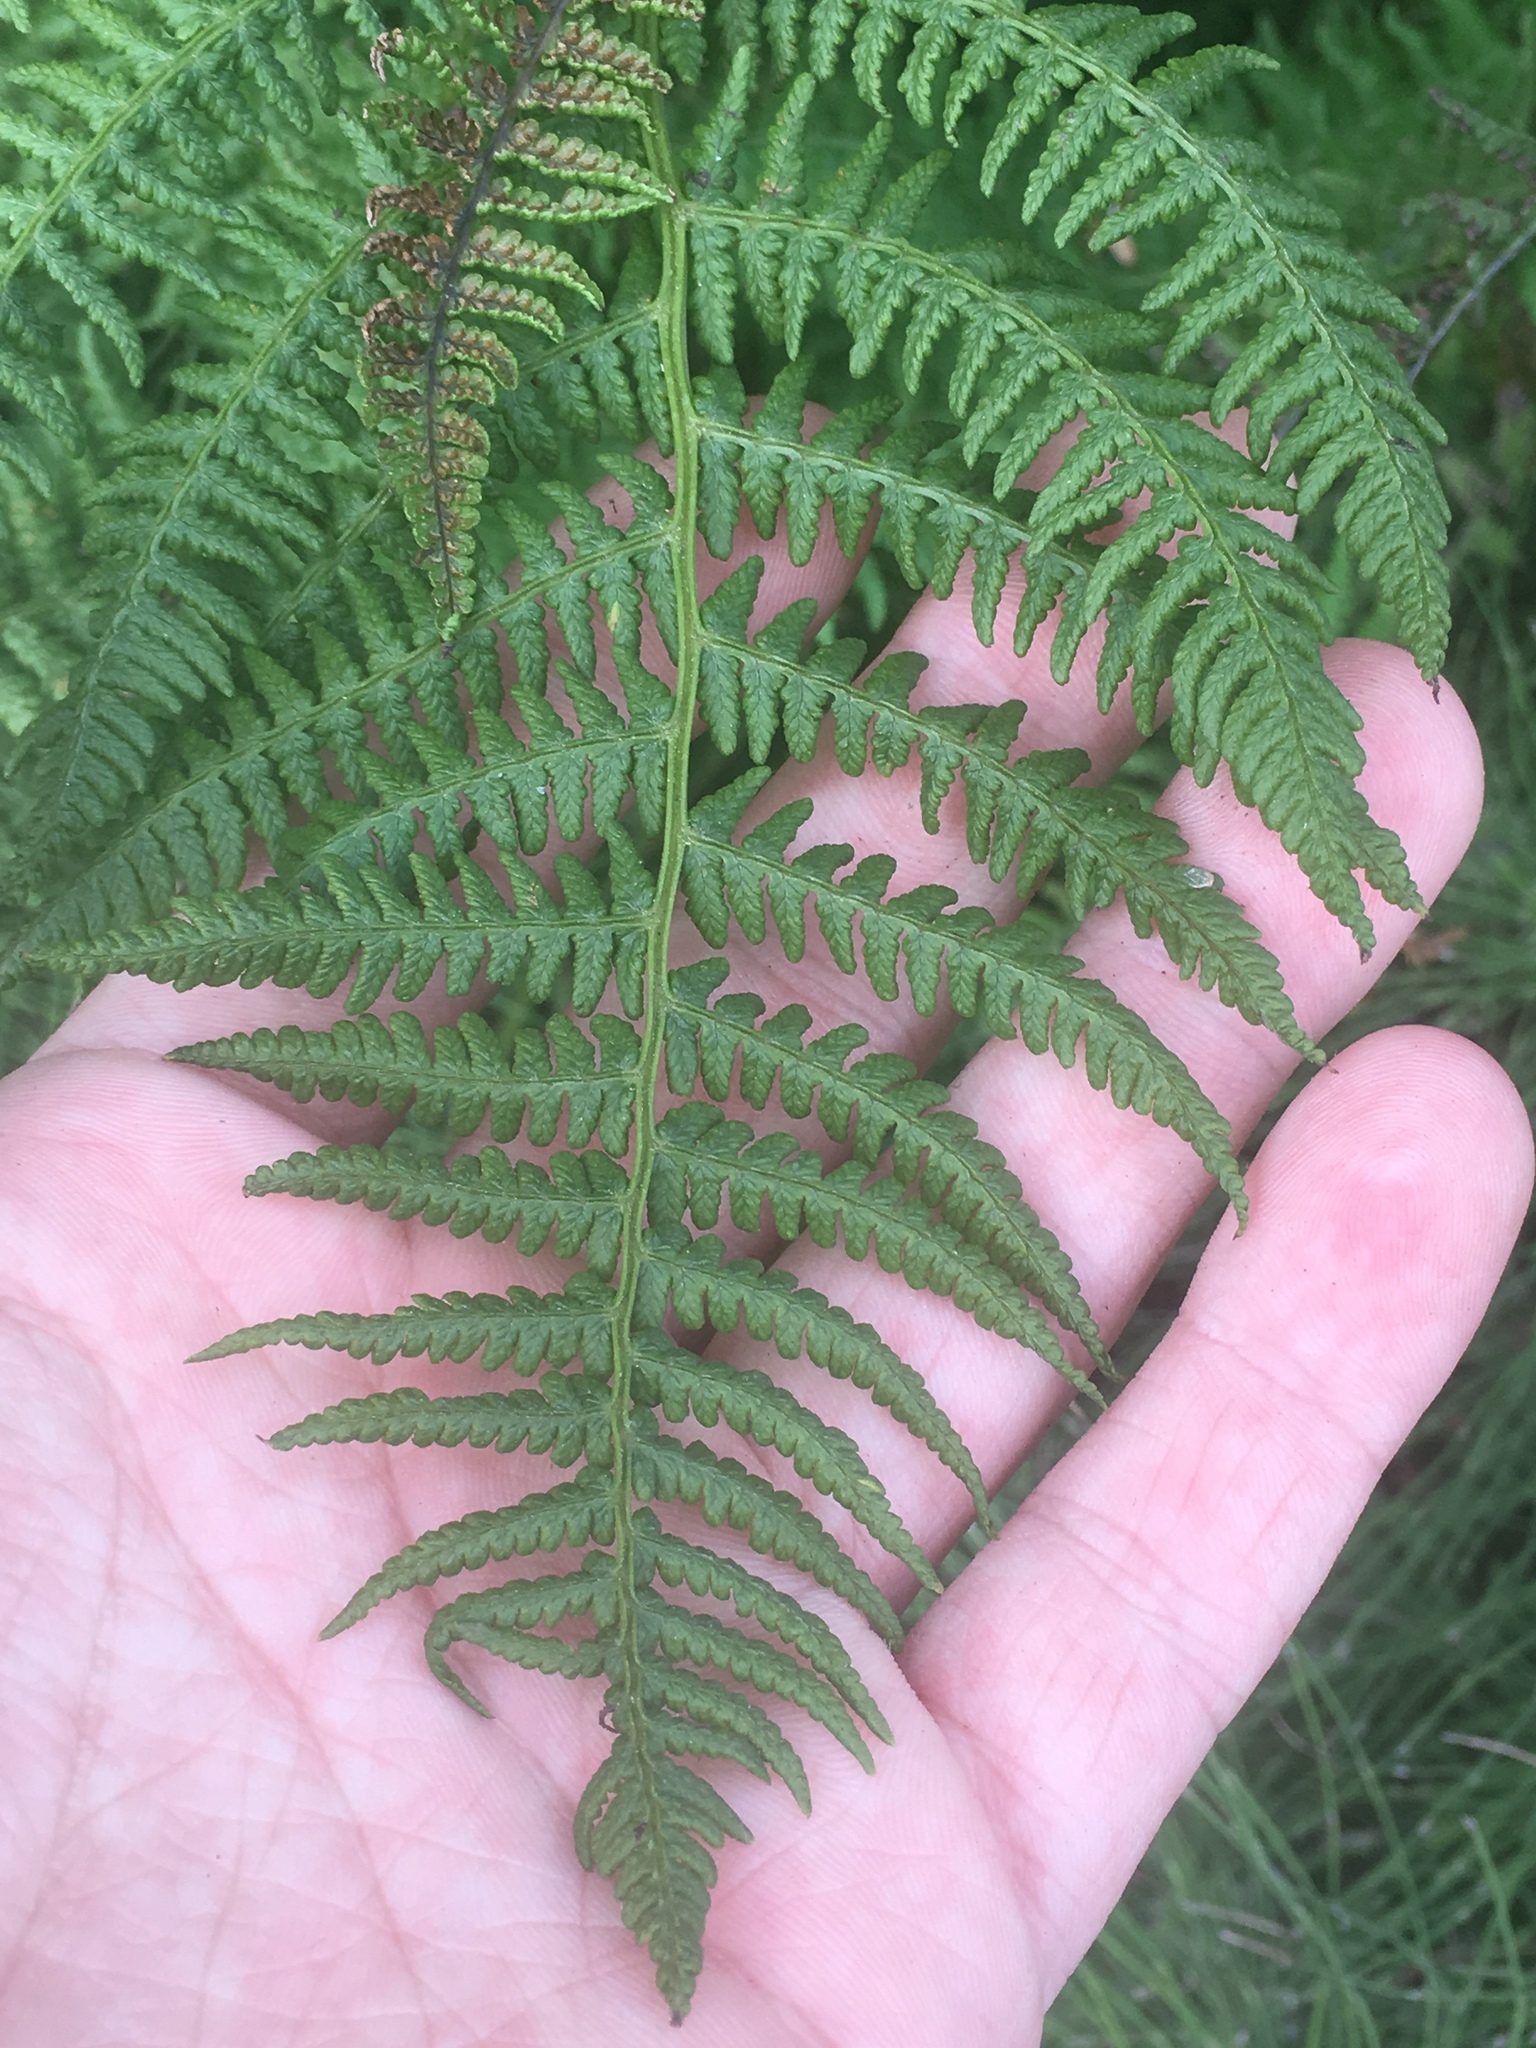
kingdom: Plantae
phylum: Tracheophyta
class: Polypodiopsida
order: Polypodiales
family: Athyriaceae
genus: Athyrium
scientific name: Athyrium filix-femina
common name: Lady fern
